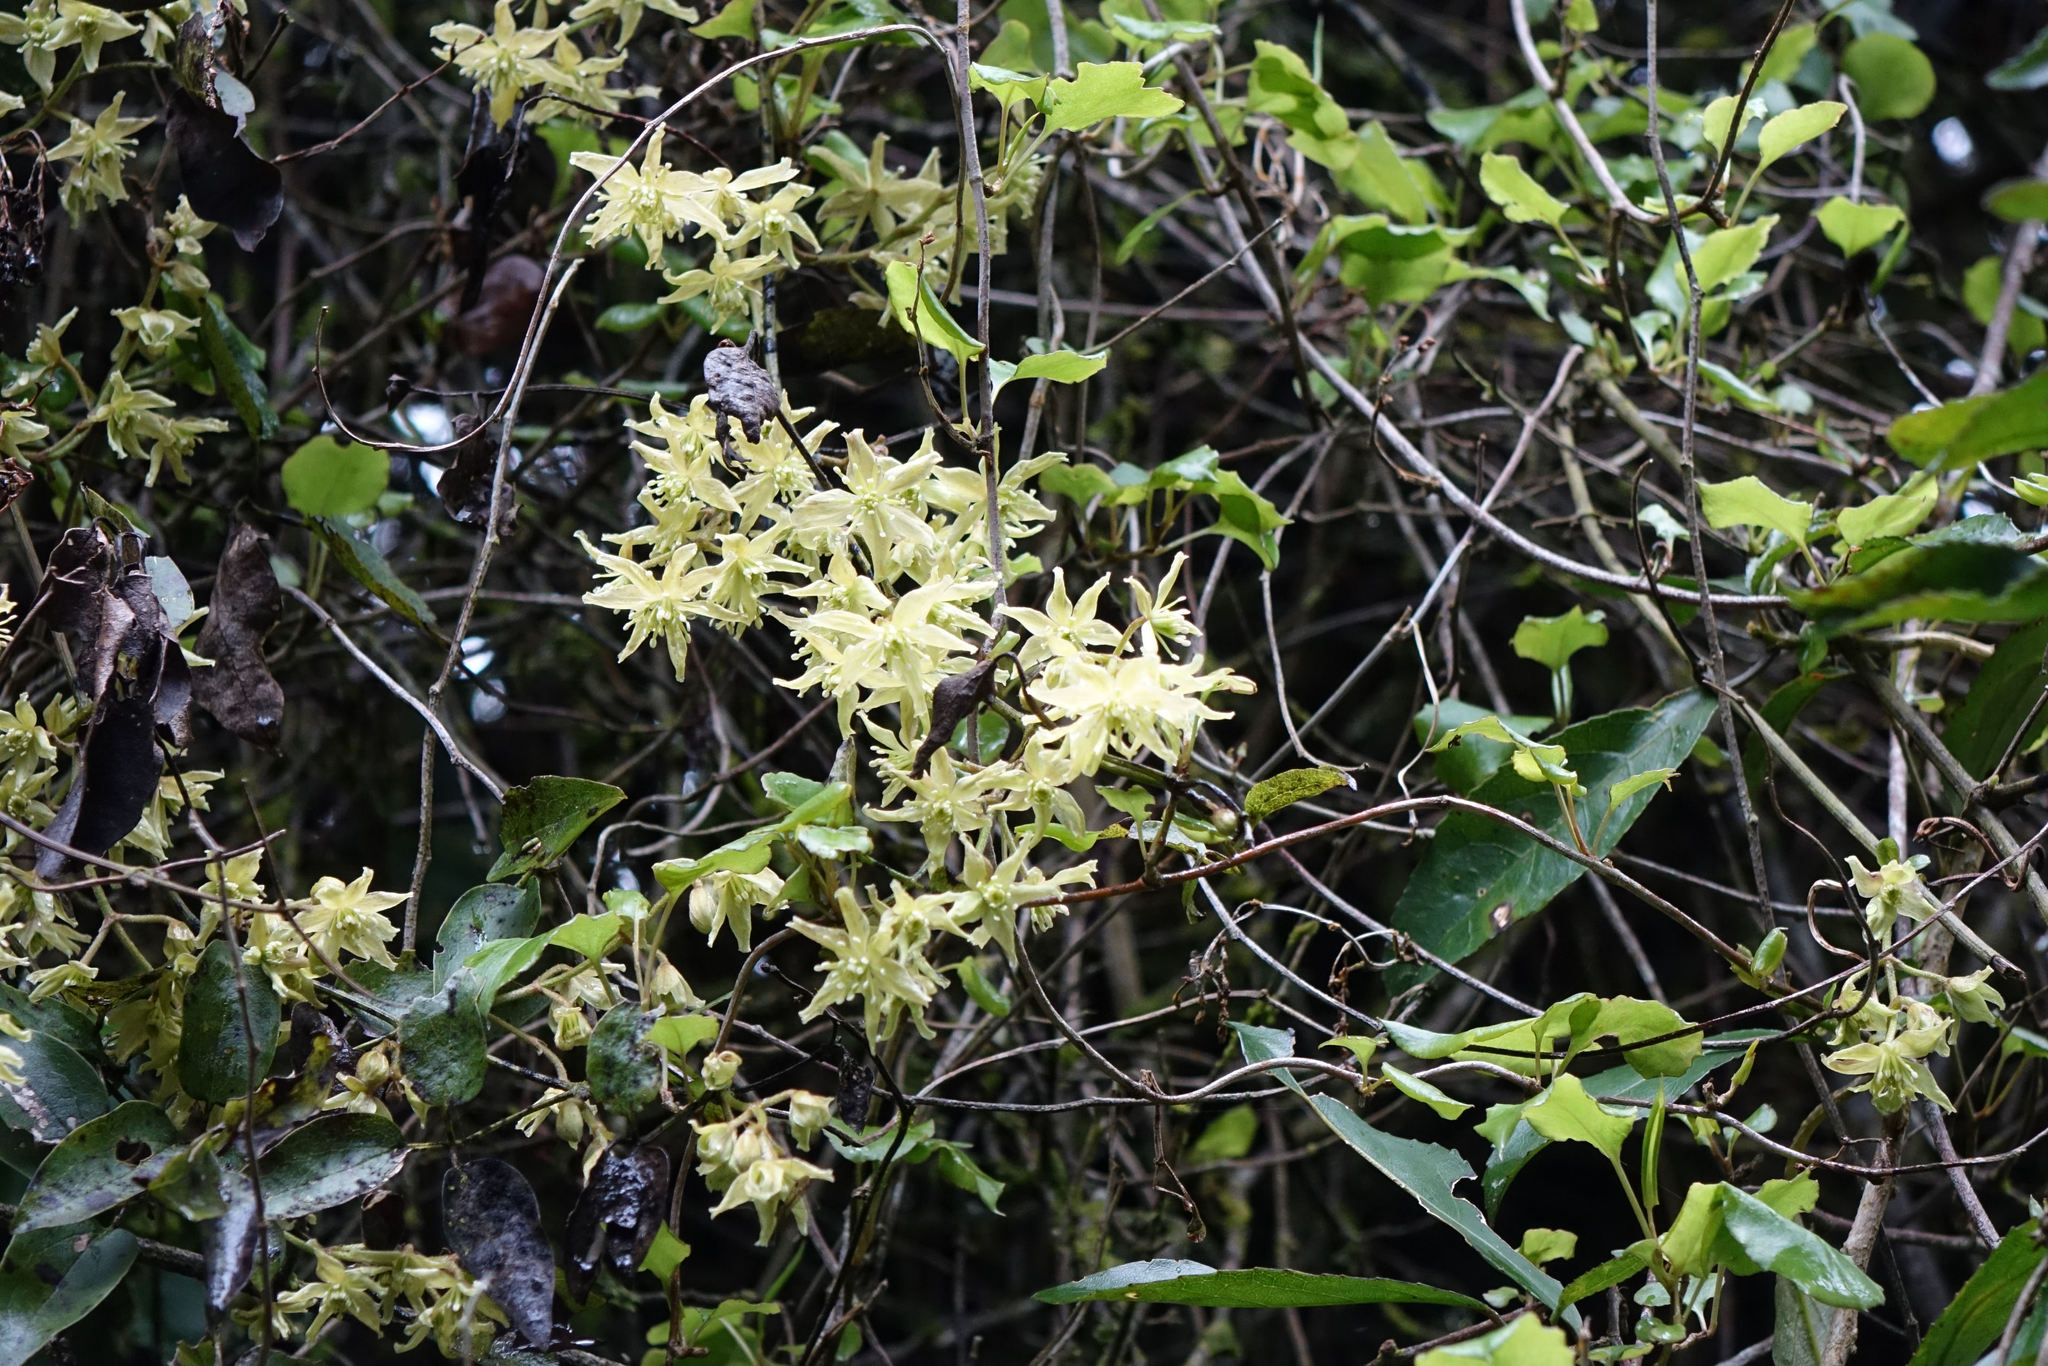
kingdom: Plantae
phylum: Tracheophyta
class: Magnoliopsida
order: Ranunculales
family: Ranunculaceae
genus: Clematis
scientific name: Clematis foetida
